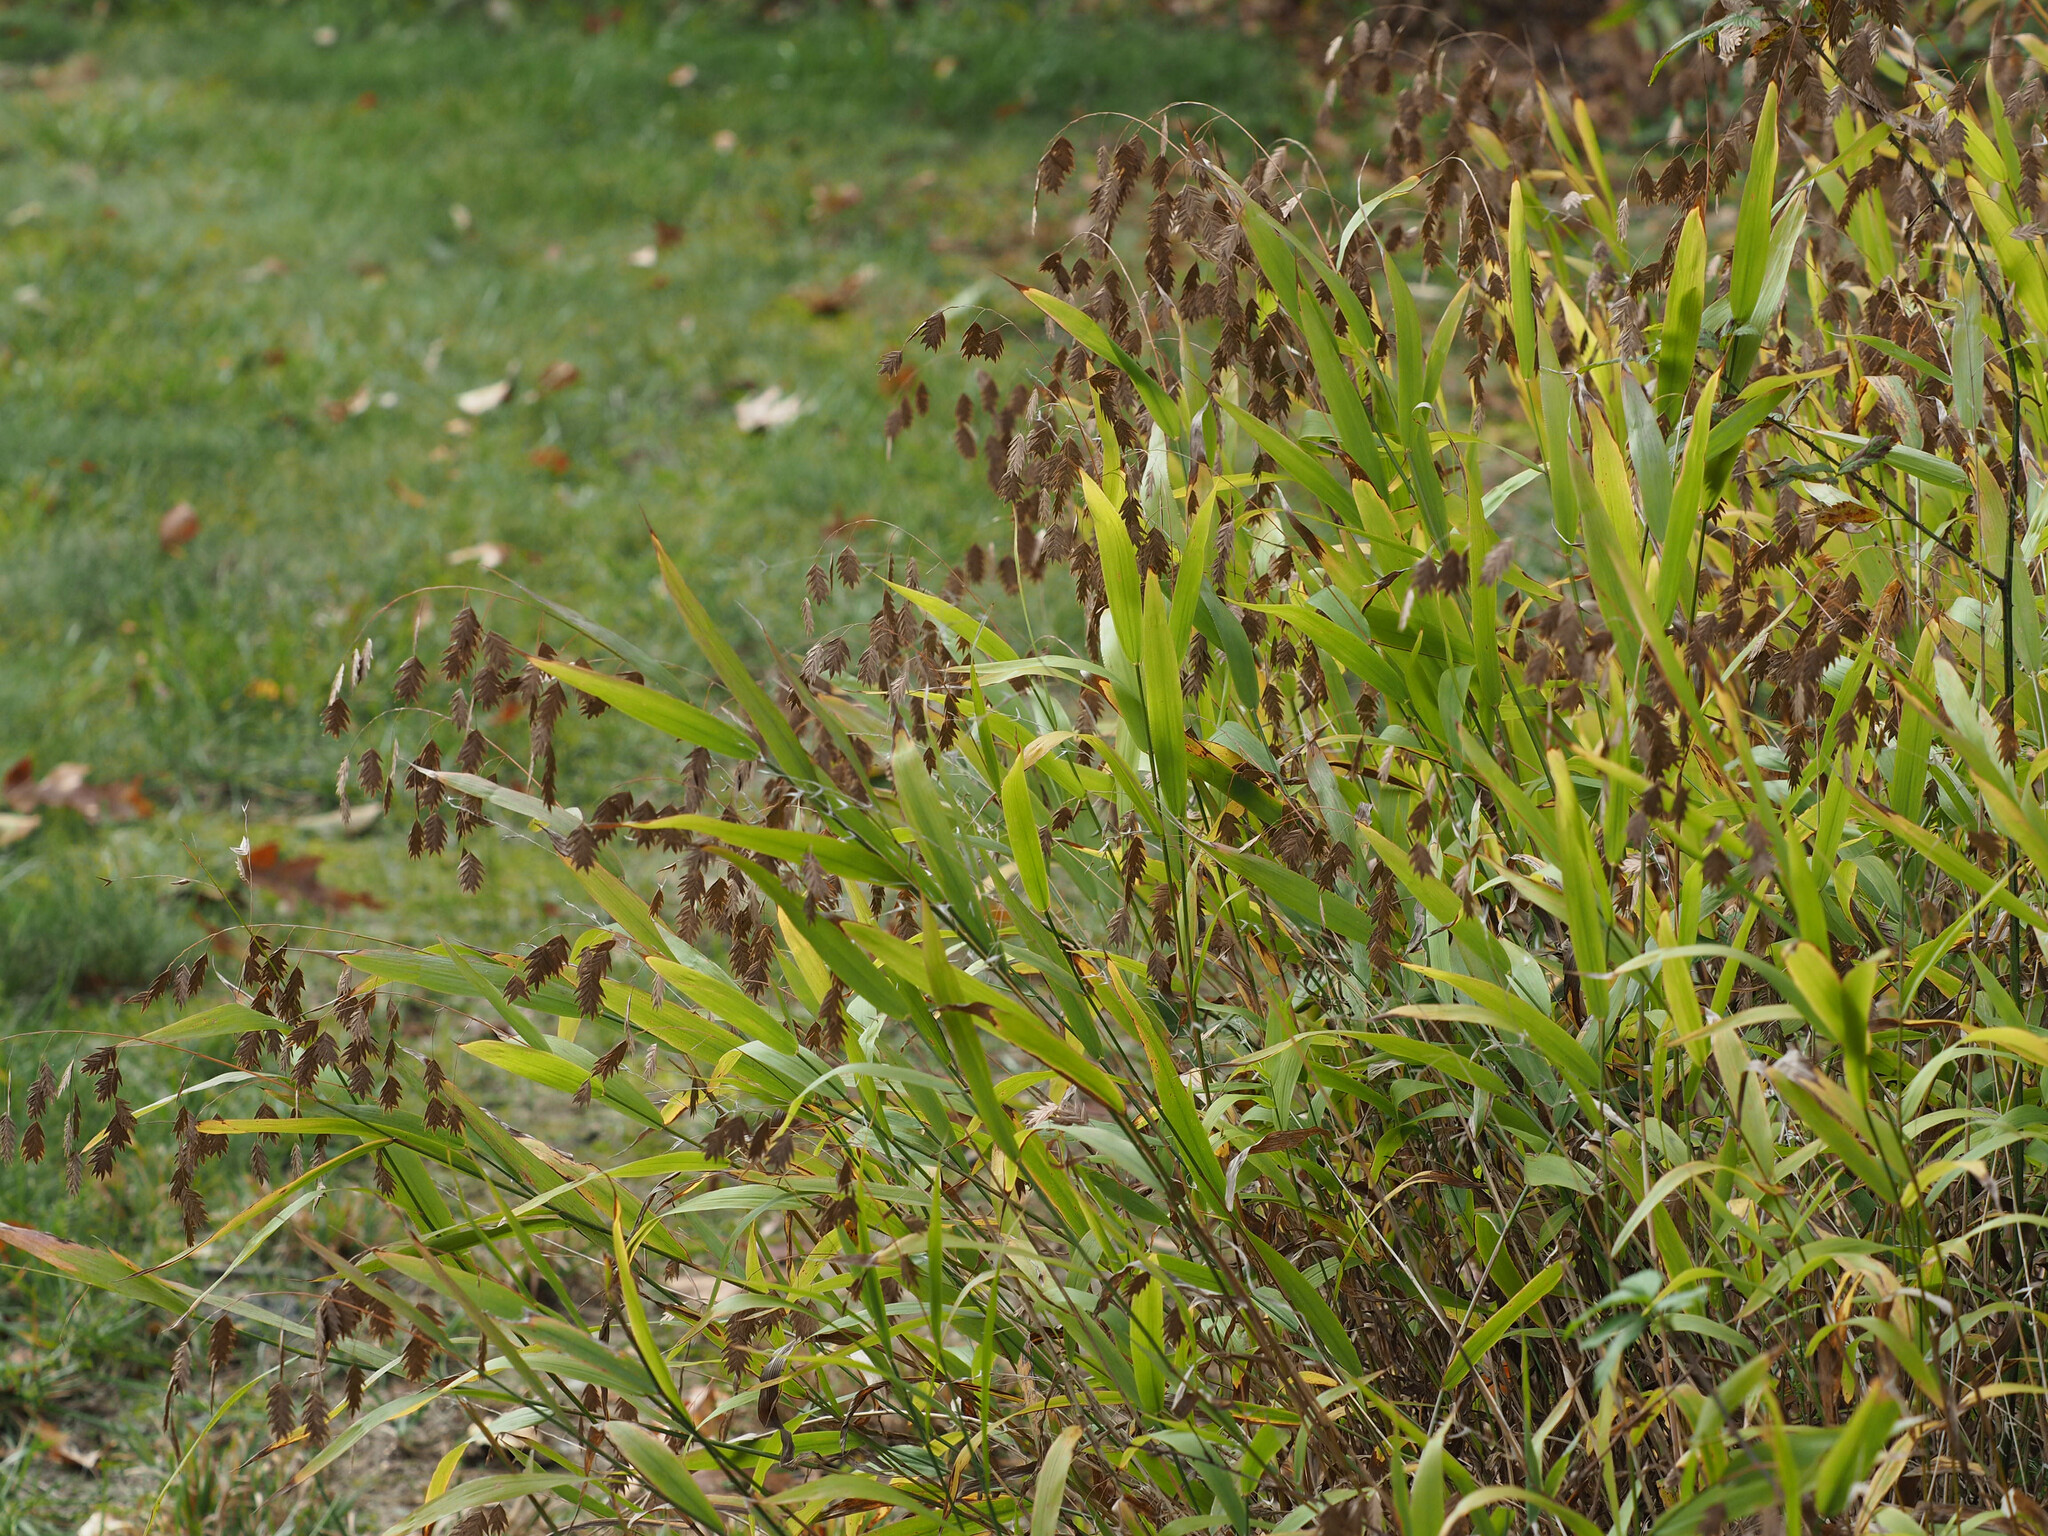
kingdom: Plantae
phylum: Tracheophyta
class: Liliopsida
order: Poales
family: Poaceae
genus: Chasmanthium
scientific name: Chasmanthium latifolium
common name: Broad-leaved chasmanthium
